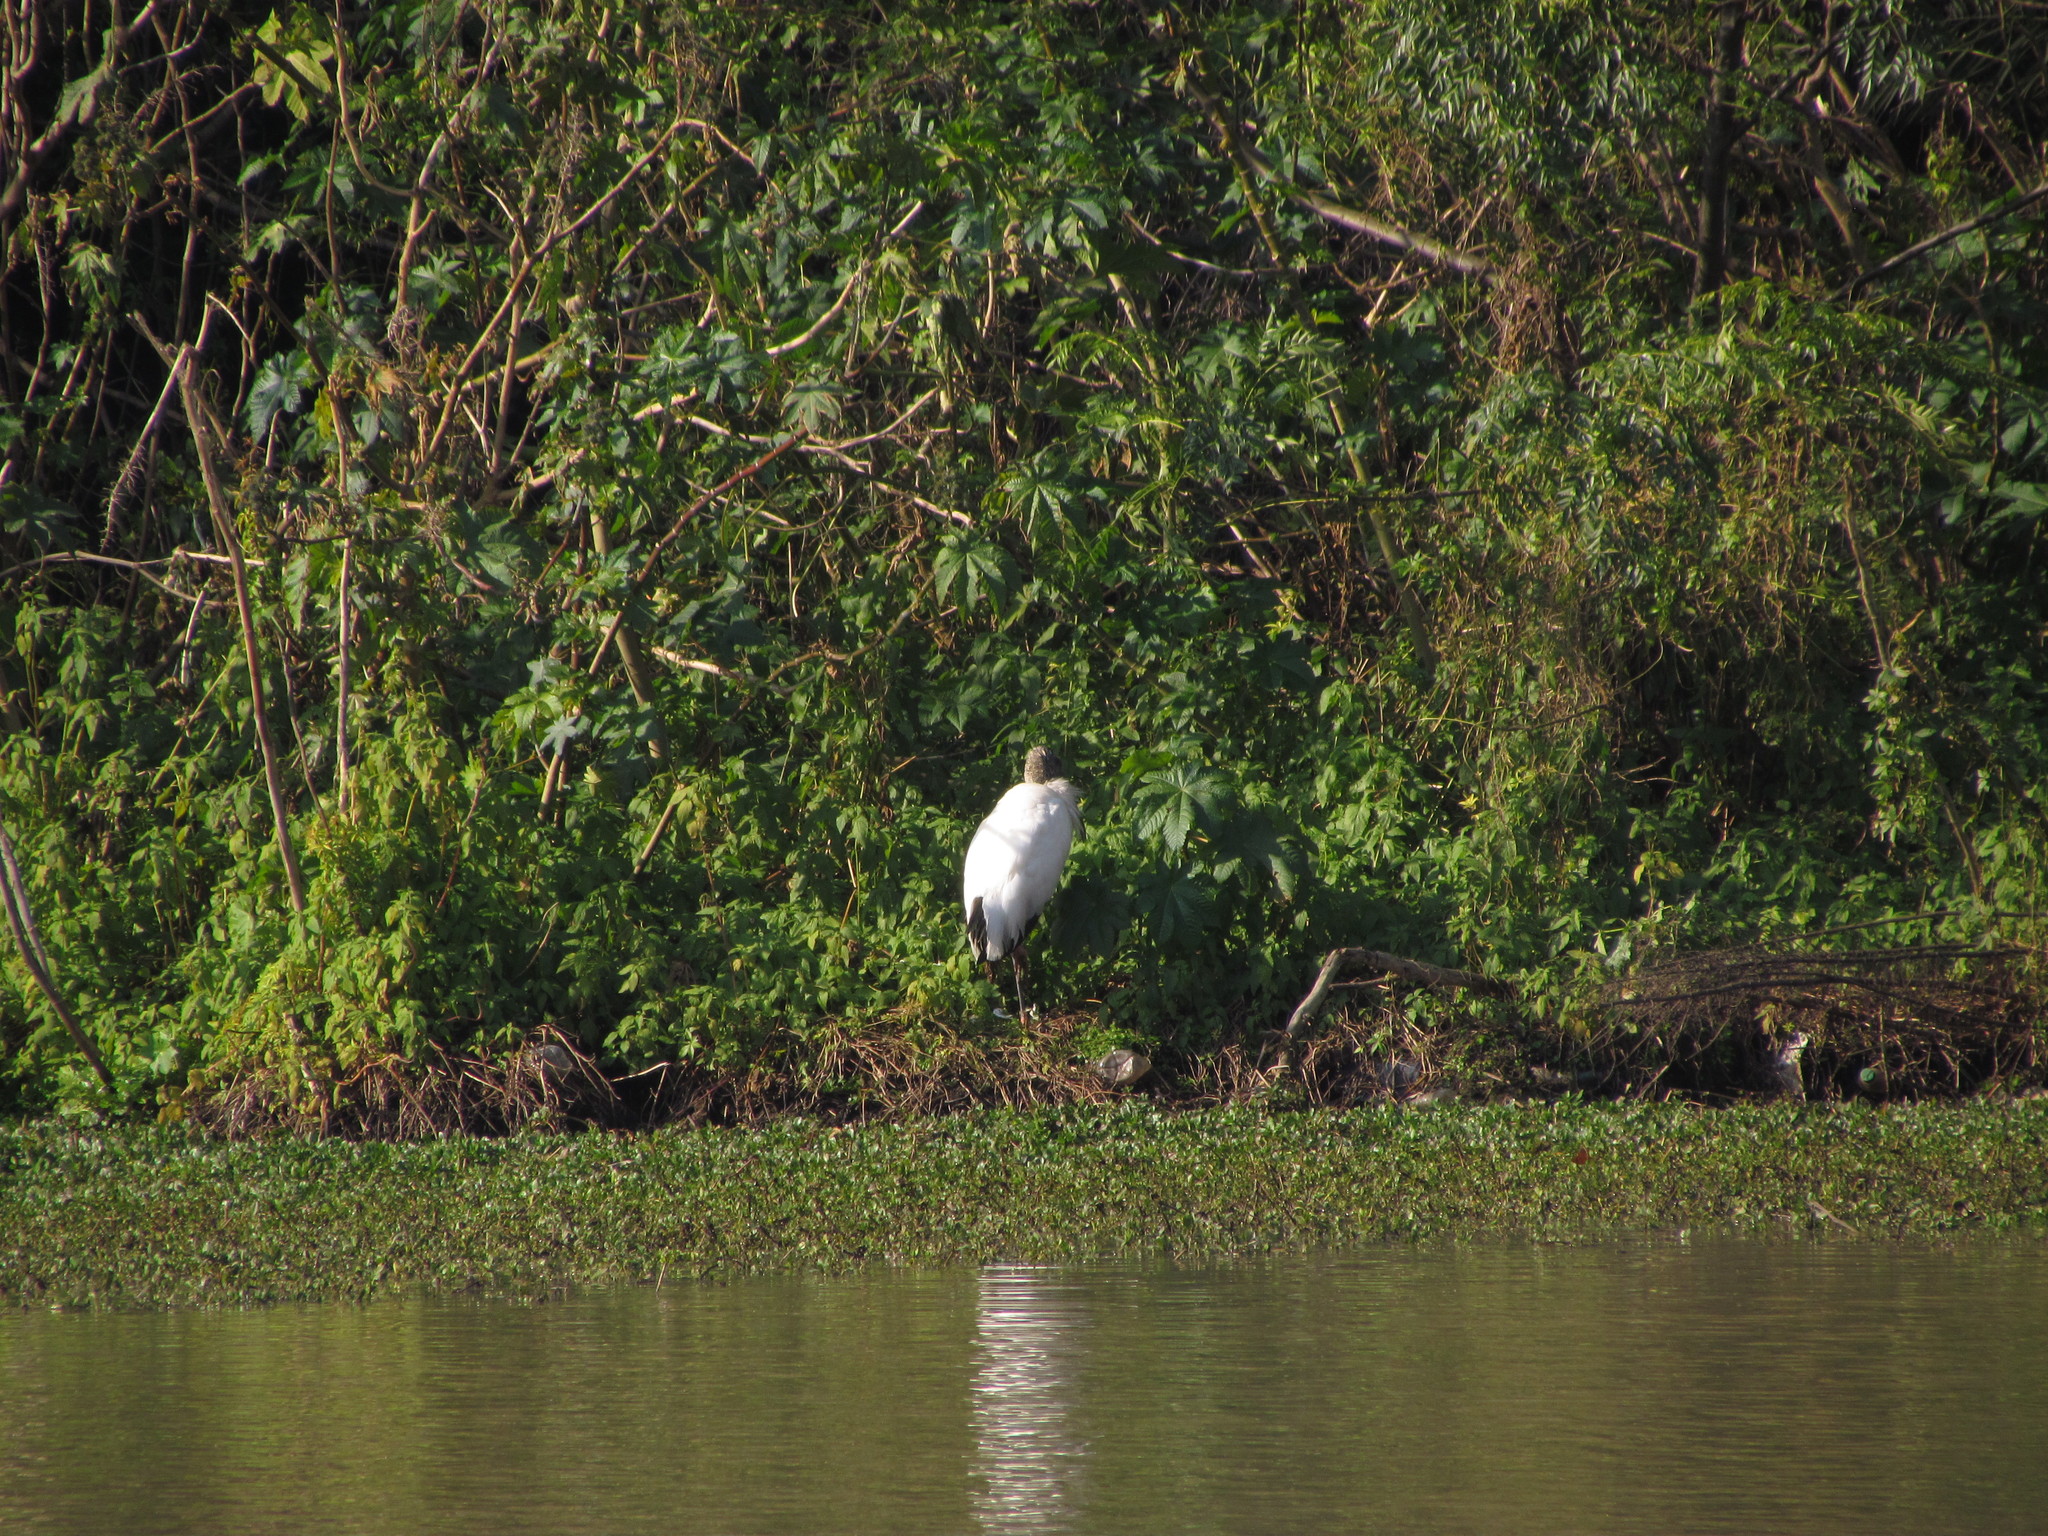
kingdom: Animalia
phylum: Chordata
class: Aves
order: Ciconiiformes
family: Ciconiidae
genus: Mycteria
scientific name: Mycteria americana
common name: Wood stork
